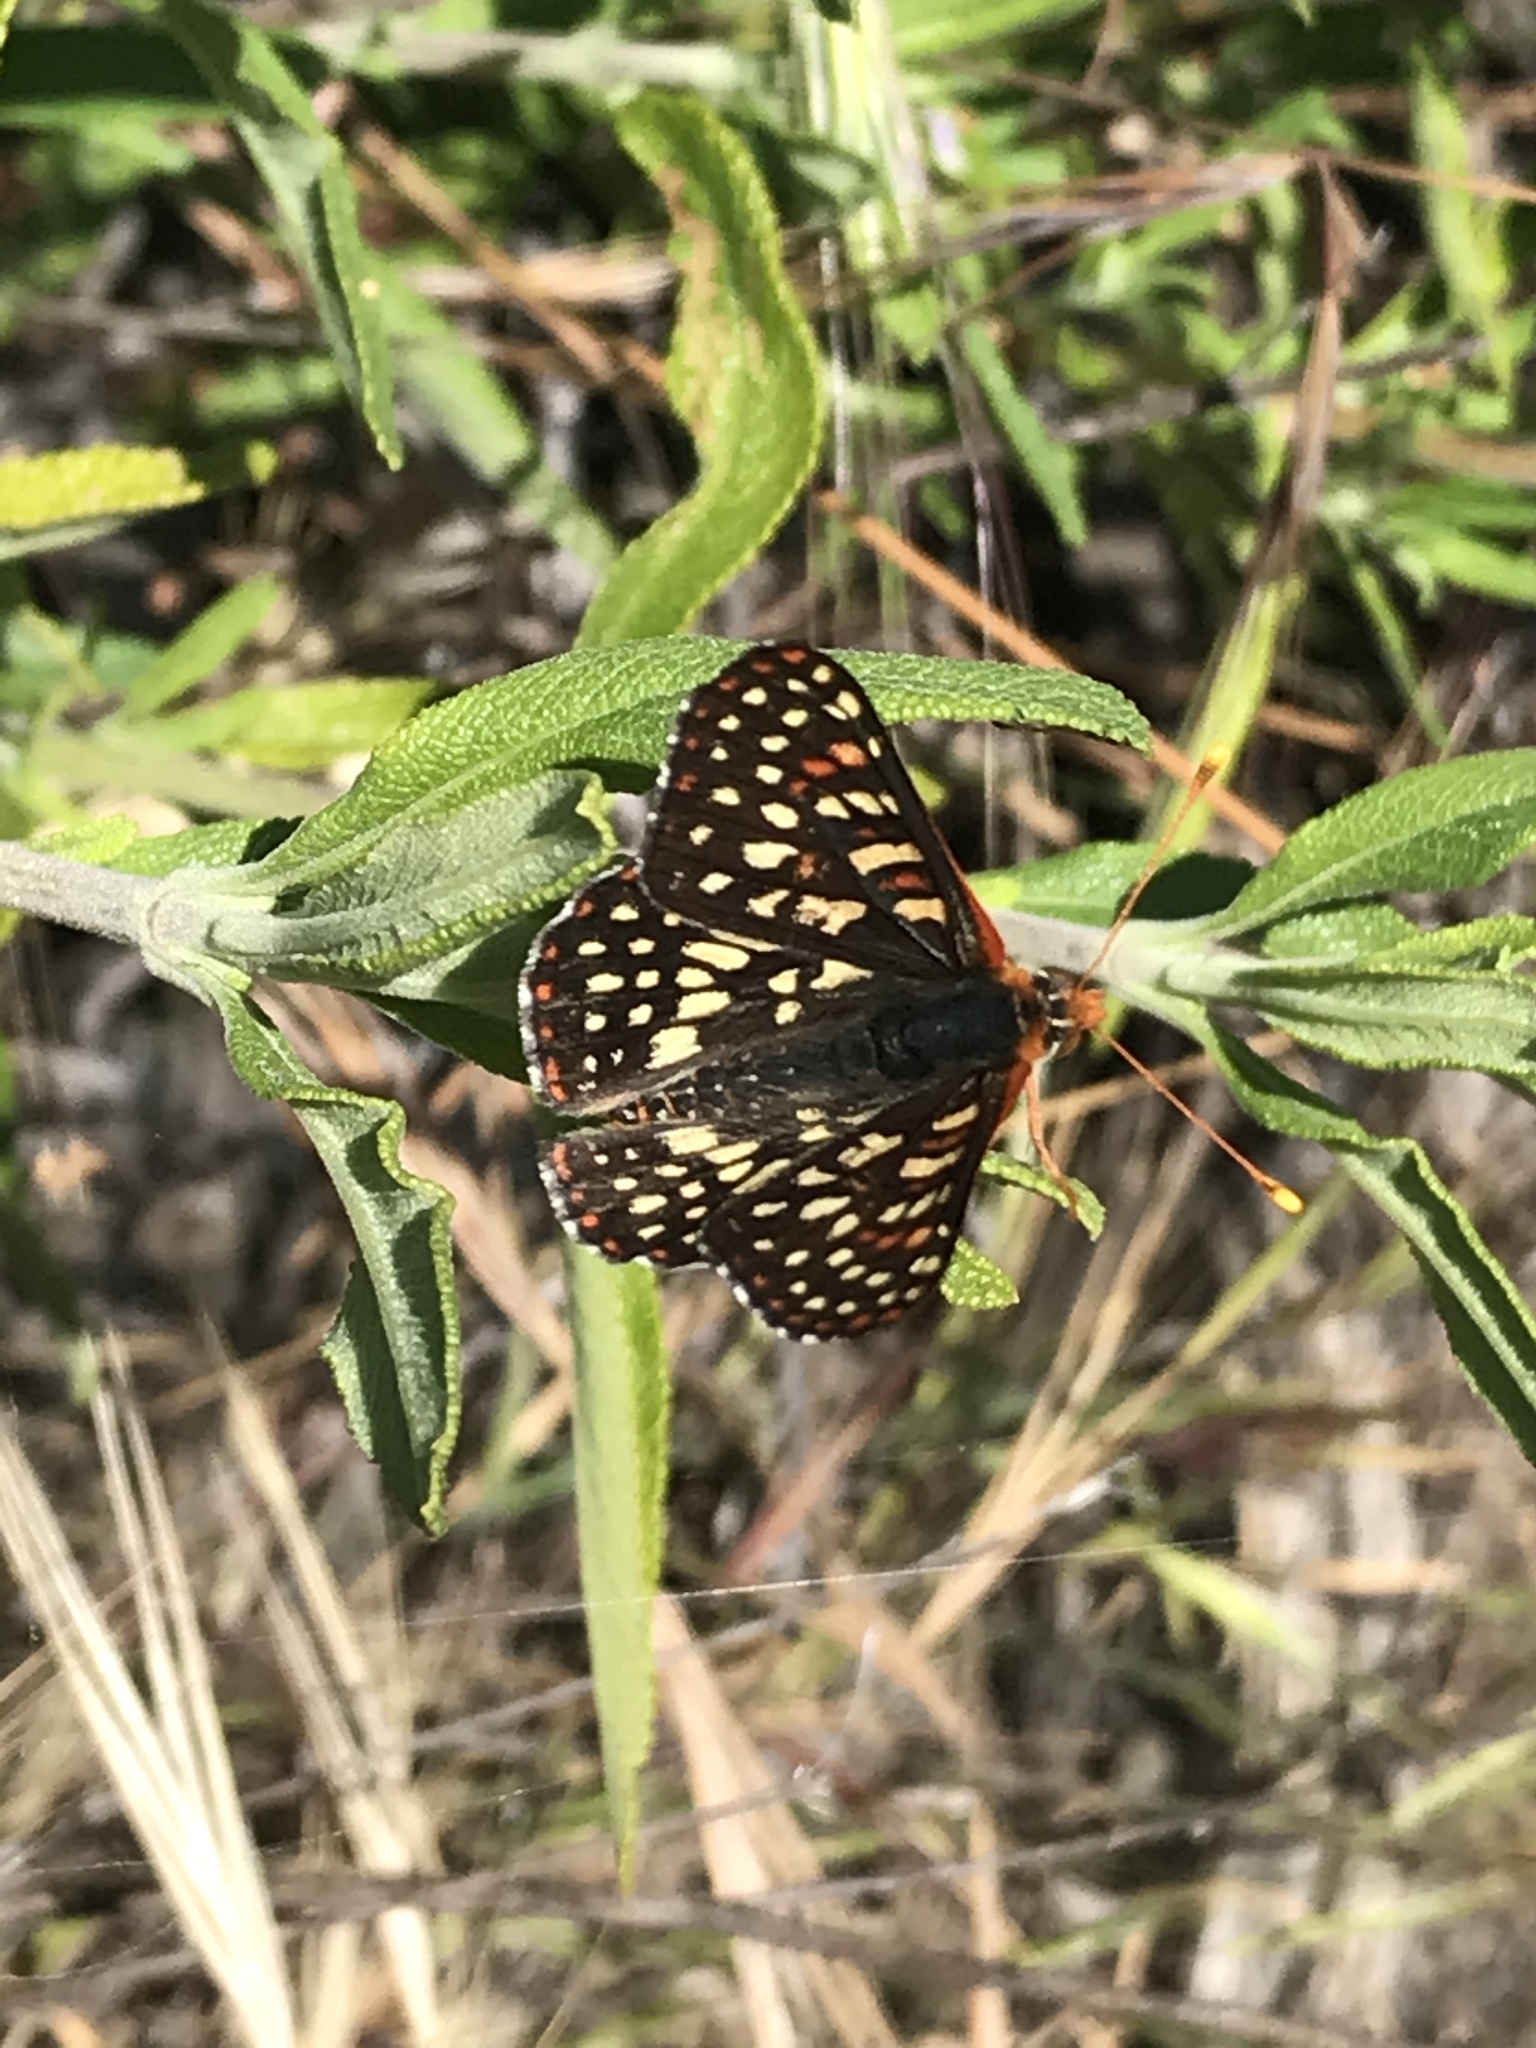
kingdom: Animalia
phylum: Arthropoda
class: Insecta
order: Lepidoptera
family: Nymphalidae
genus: Occidryas
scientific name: Occidryas chalcedona
